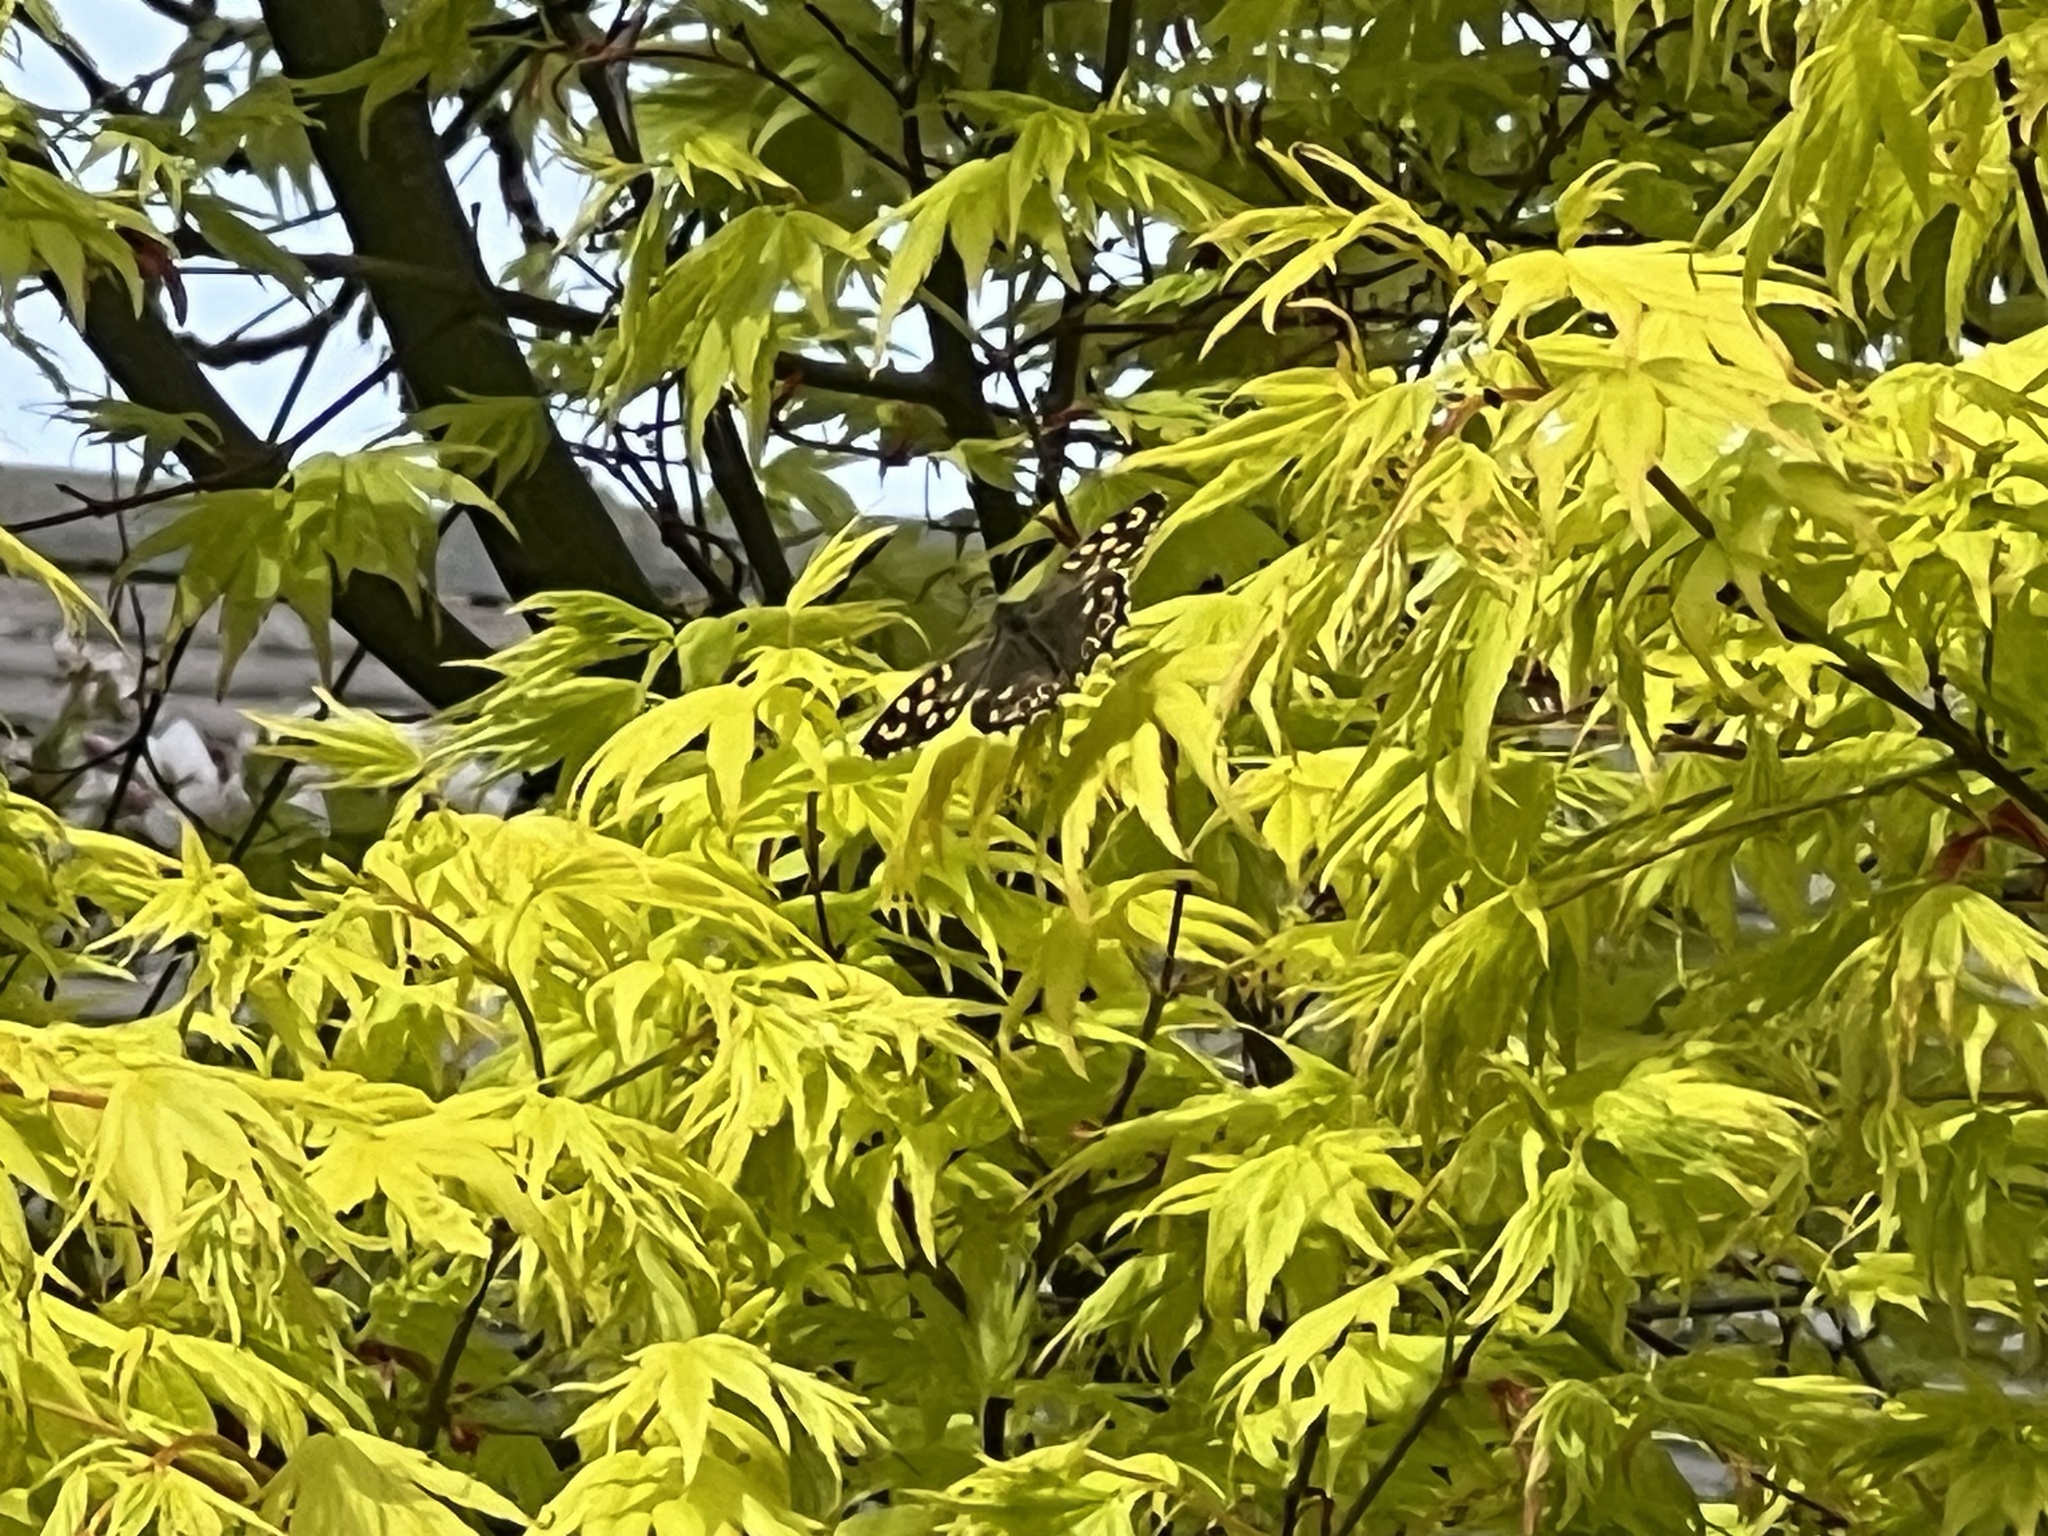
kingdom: Animalia
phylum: Arthropoda
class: Insecta
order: Lepidoptera
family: Nymphalidae
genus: Pararge
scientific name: Pararge aegeria
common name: Speckled wood
